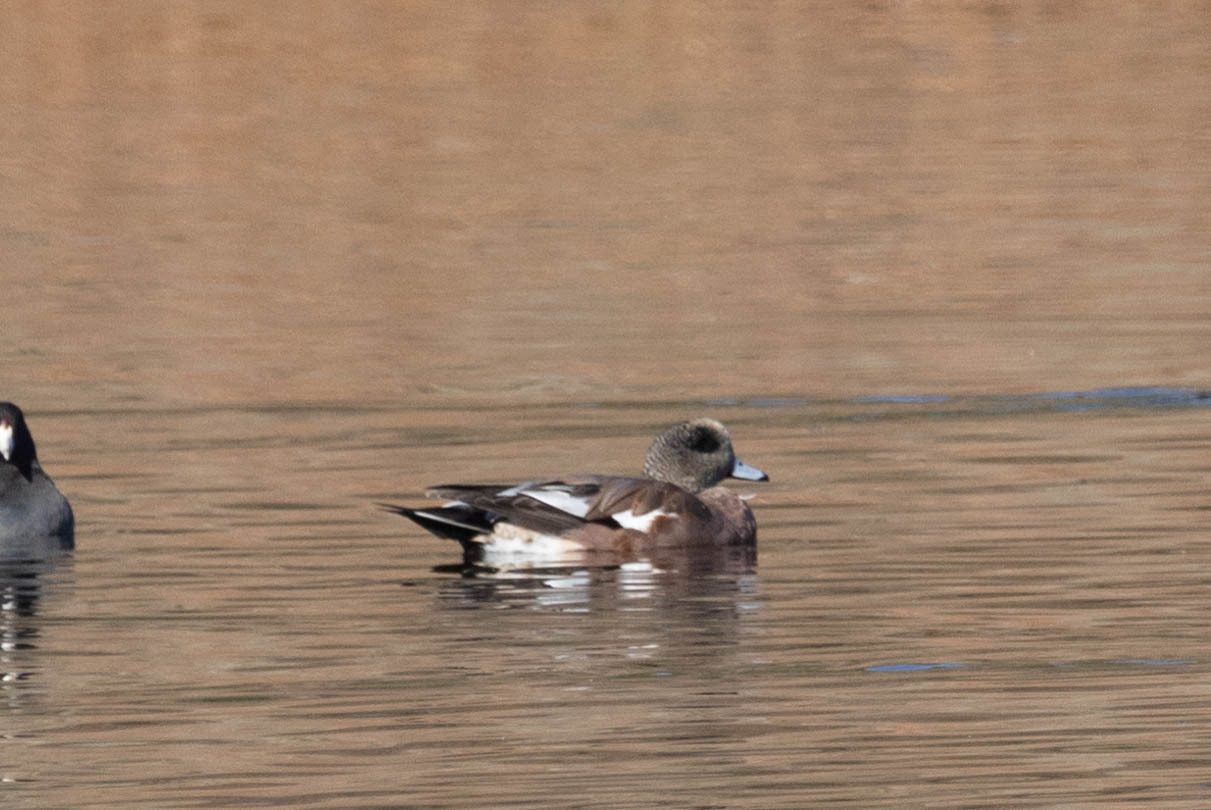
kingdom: Animalia
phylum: Chordata
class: Aves
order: Anseriformes
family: Anatidae
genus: Mareca
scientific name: Mareca americana
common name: American wigeon
